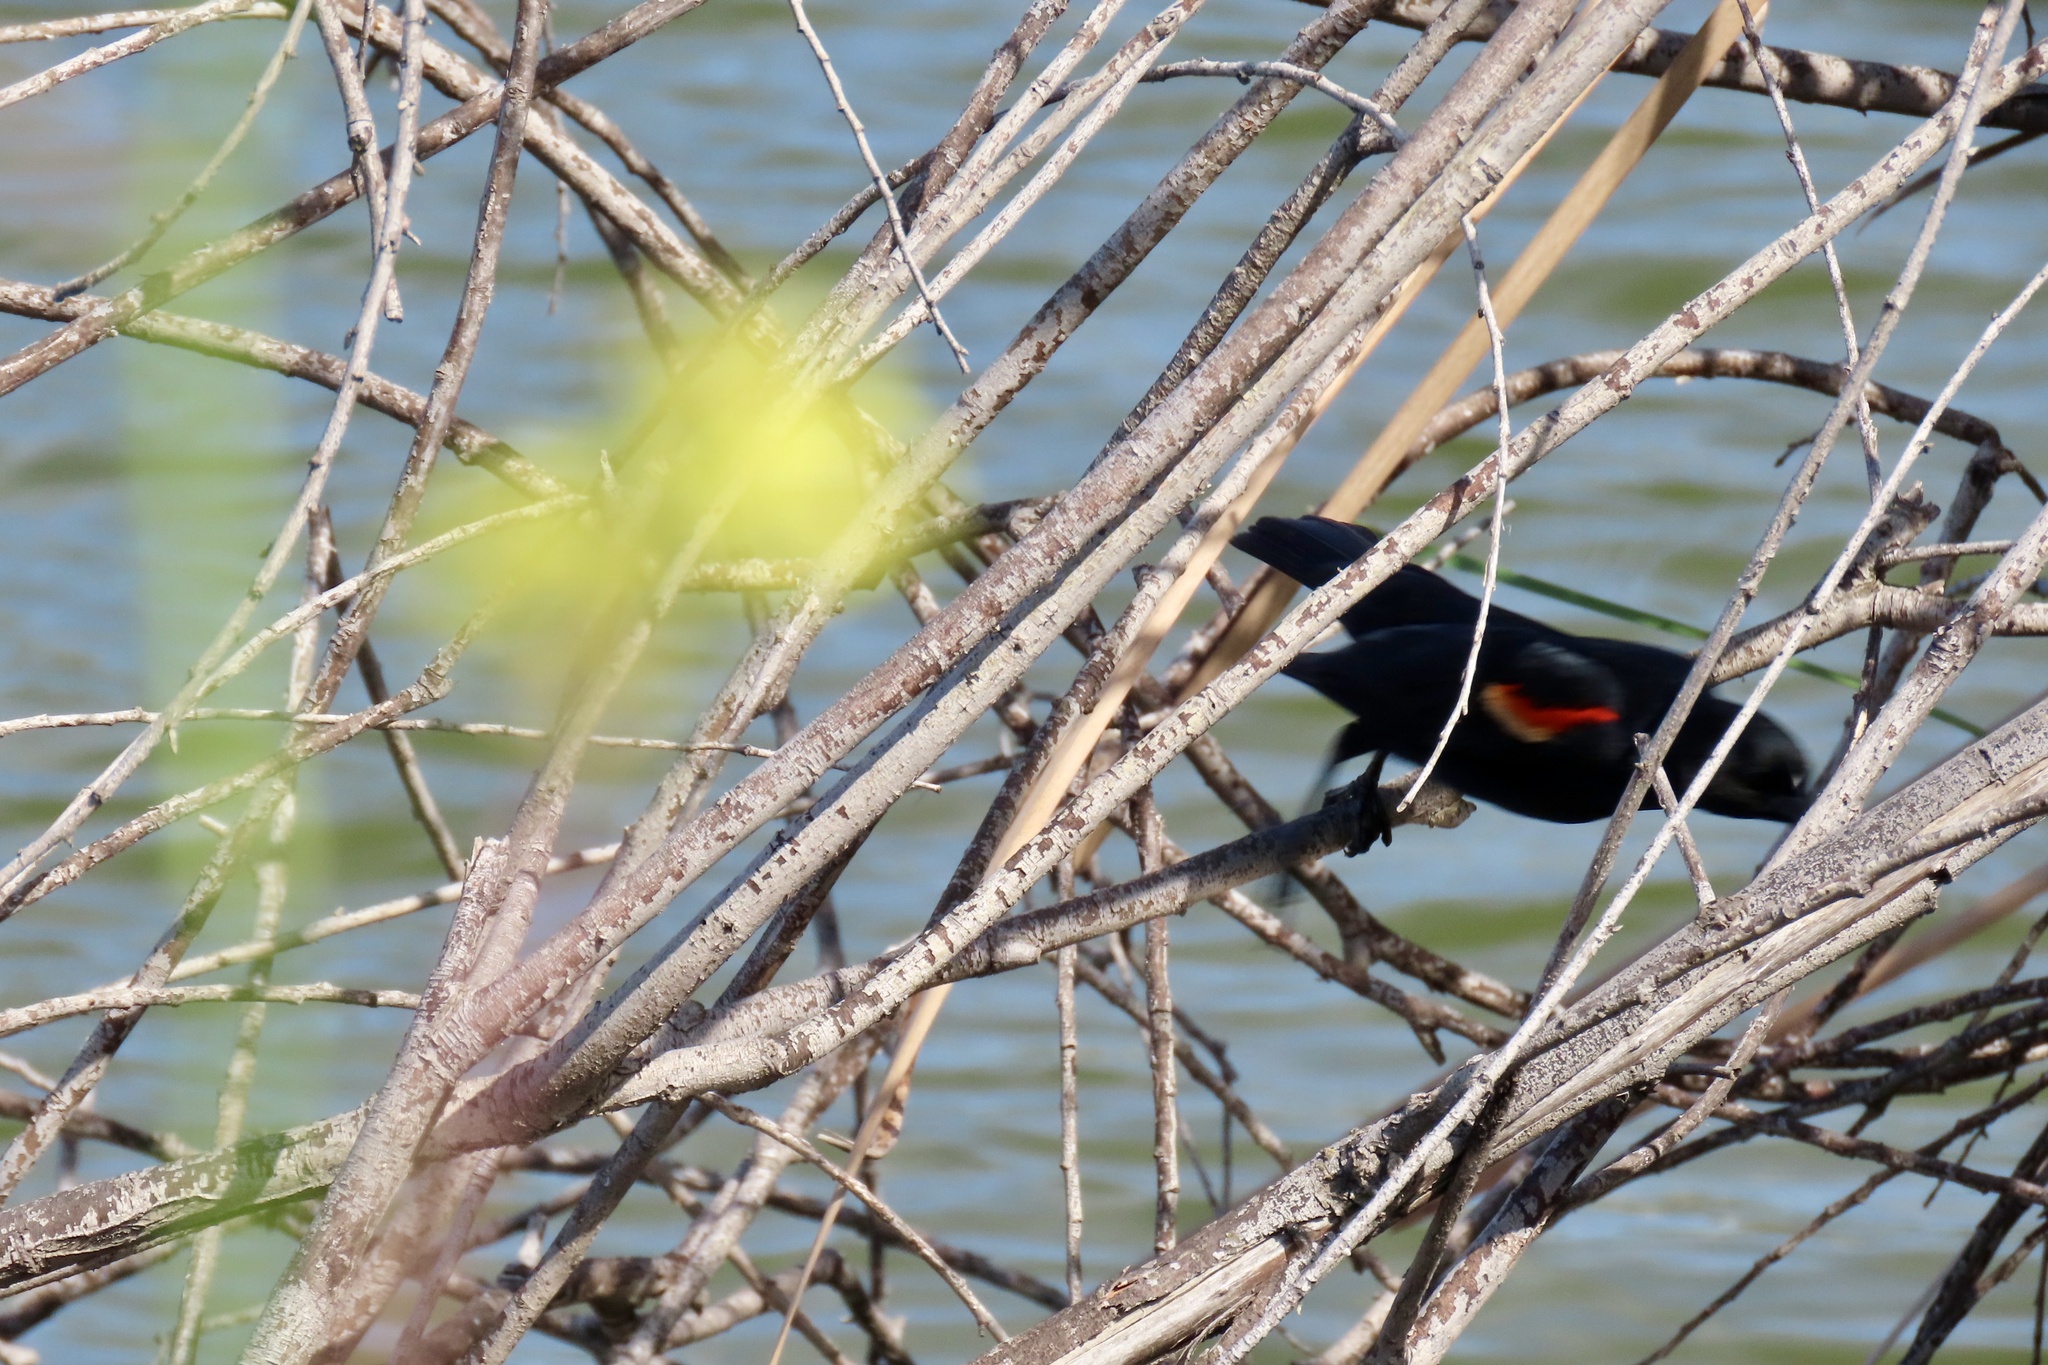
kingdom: Animalia
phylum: Chordata
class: Aves
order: Passeriformes
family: Icteridae
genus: Agelaius
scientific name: Agelaius phoeniceus
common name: Red-winged blackbird
